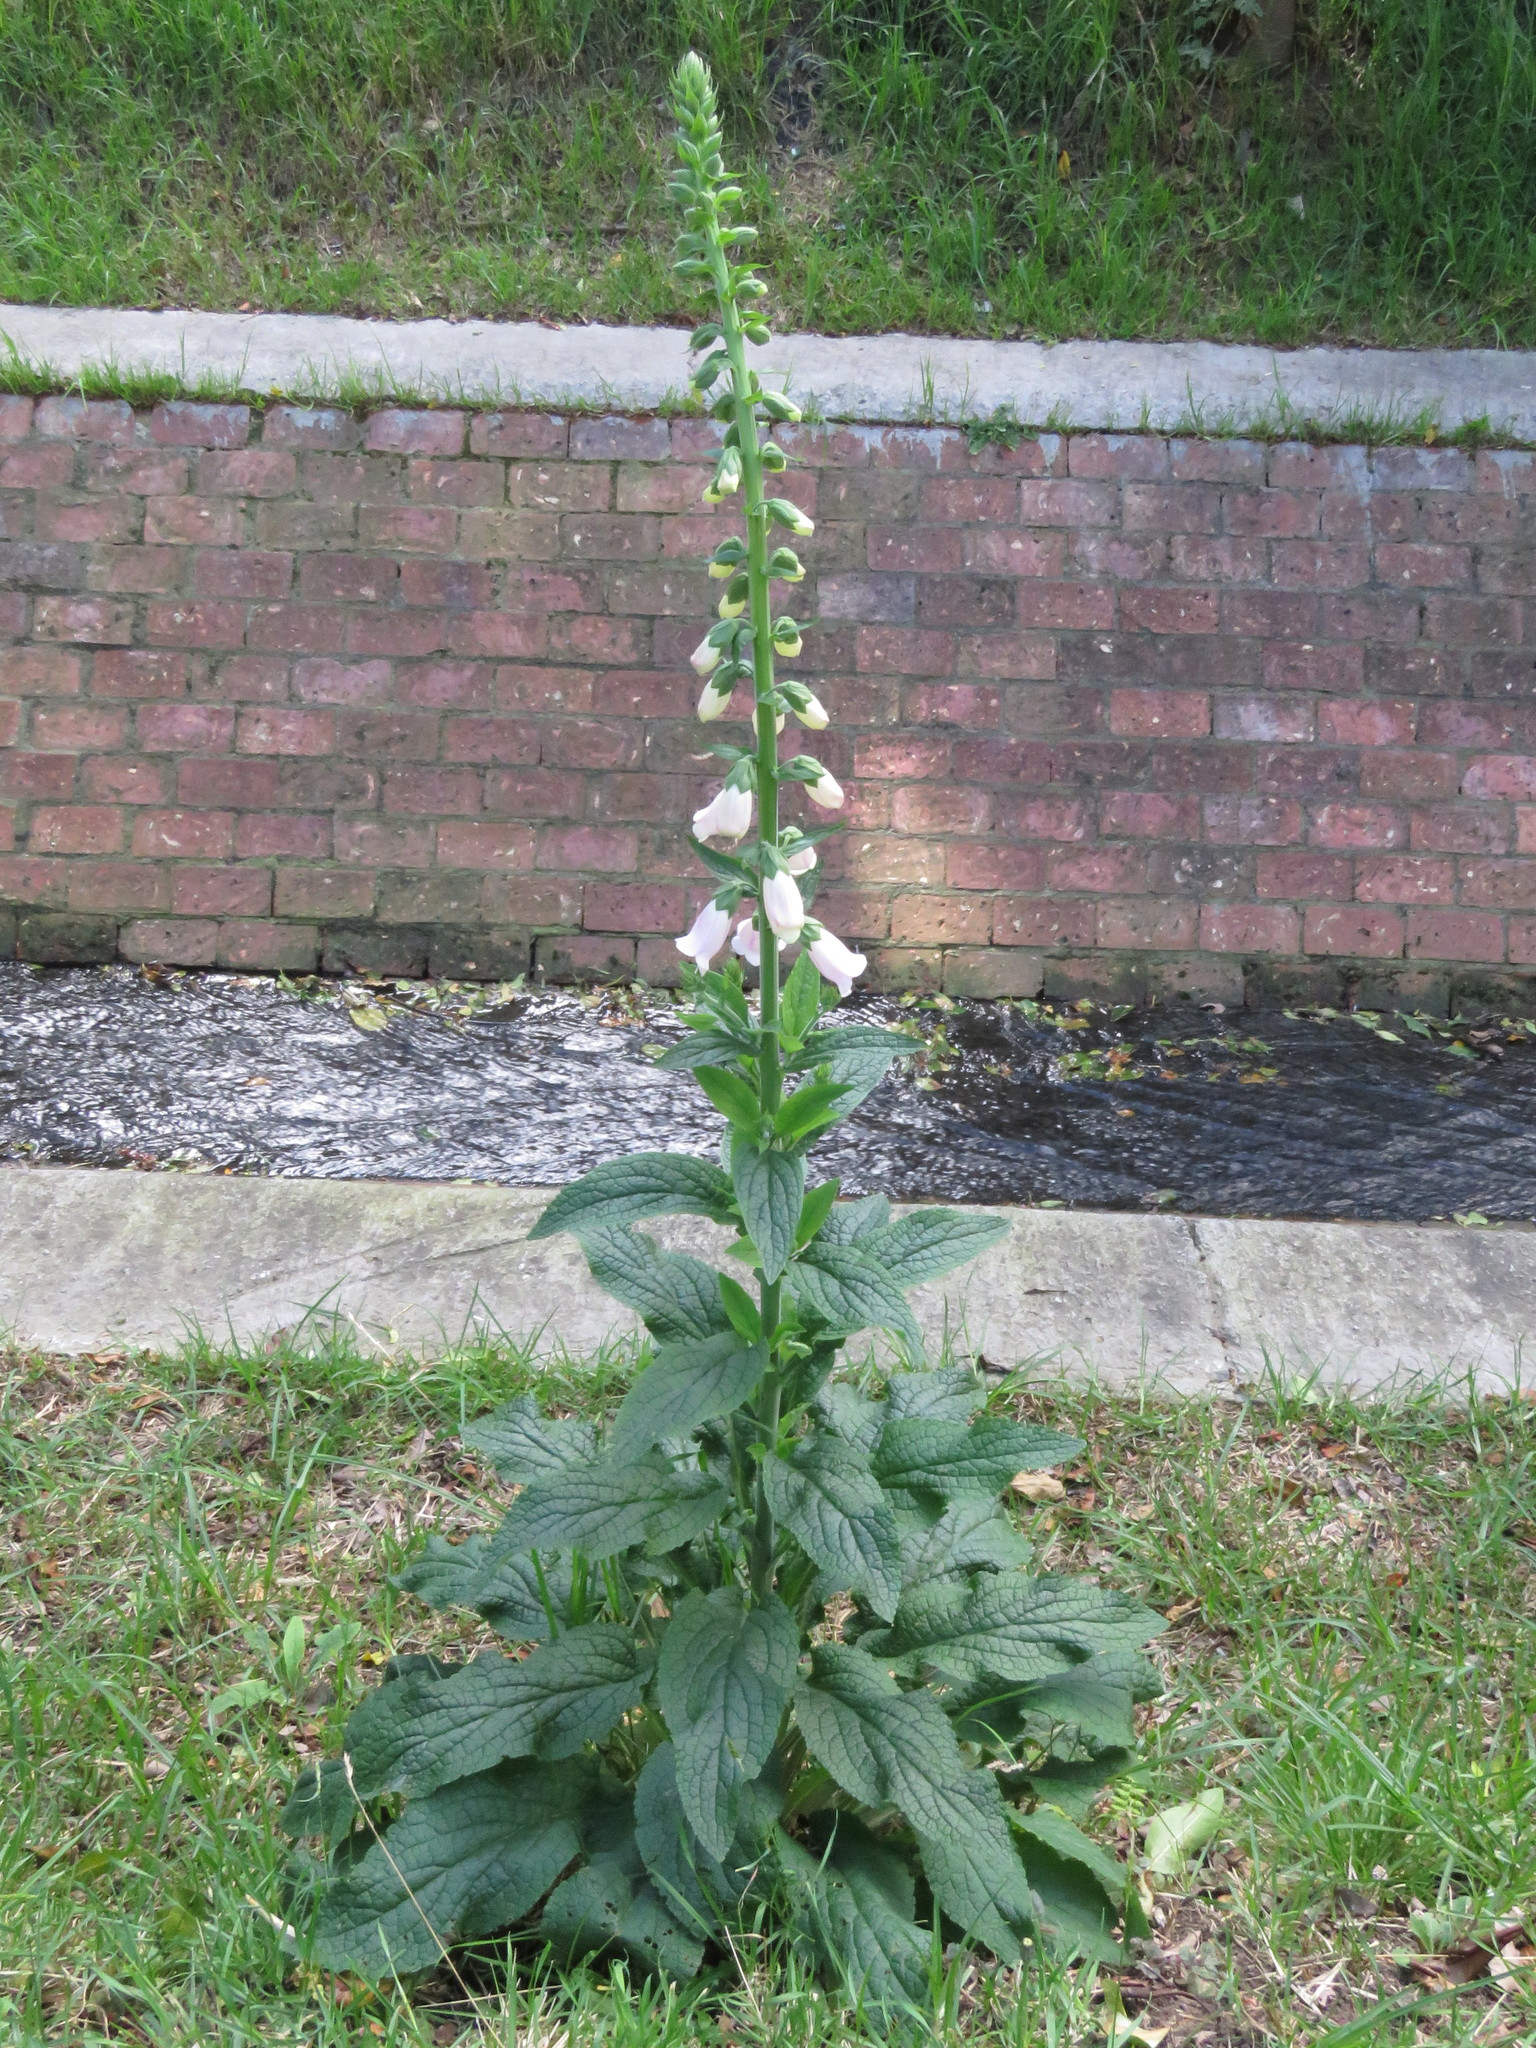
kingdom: Plantae
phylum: Tracheophyta
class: Magnoliopsida
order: Lamiales
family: Plantaginaceae
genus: Digitalis
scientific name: Digitalis purpurea
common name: Foxglove
